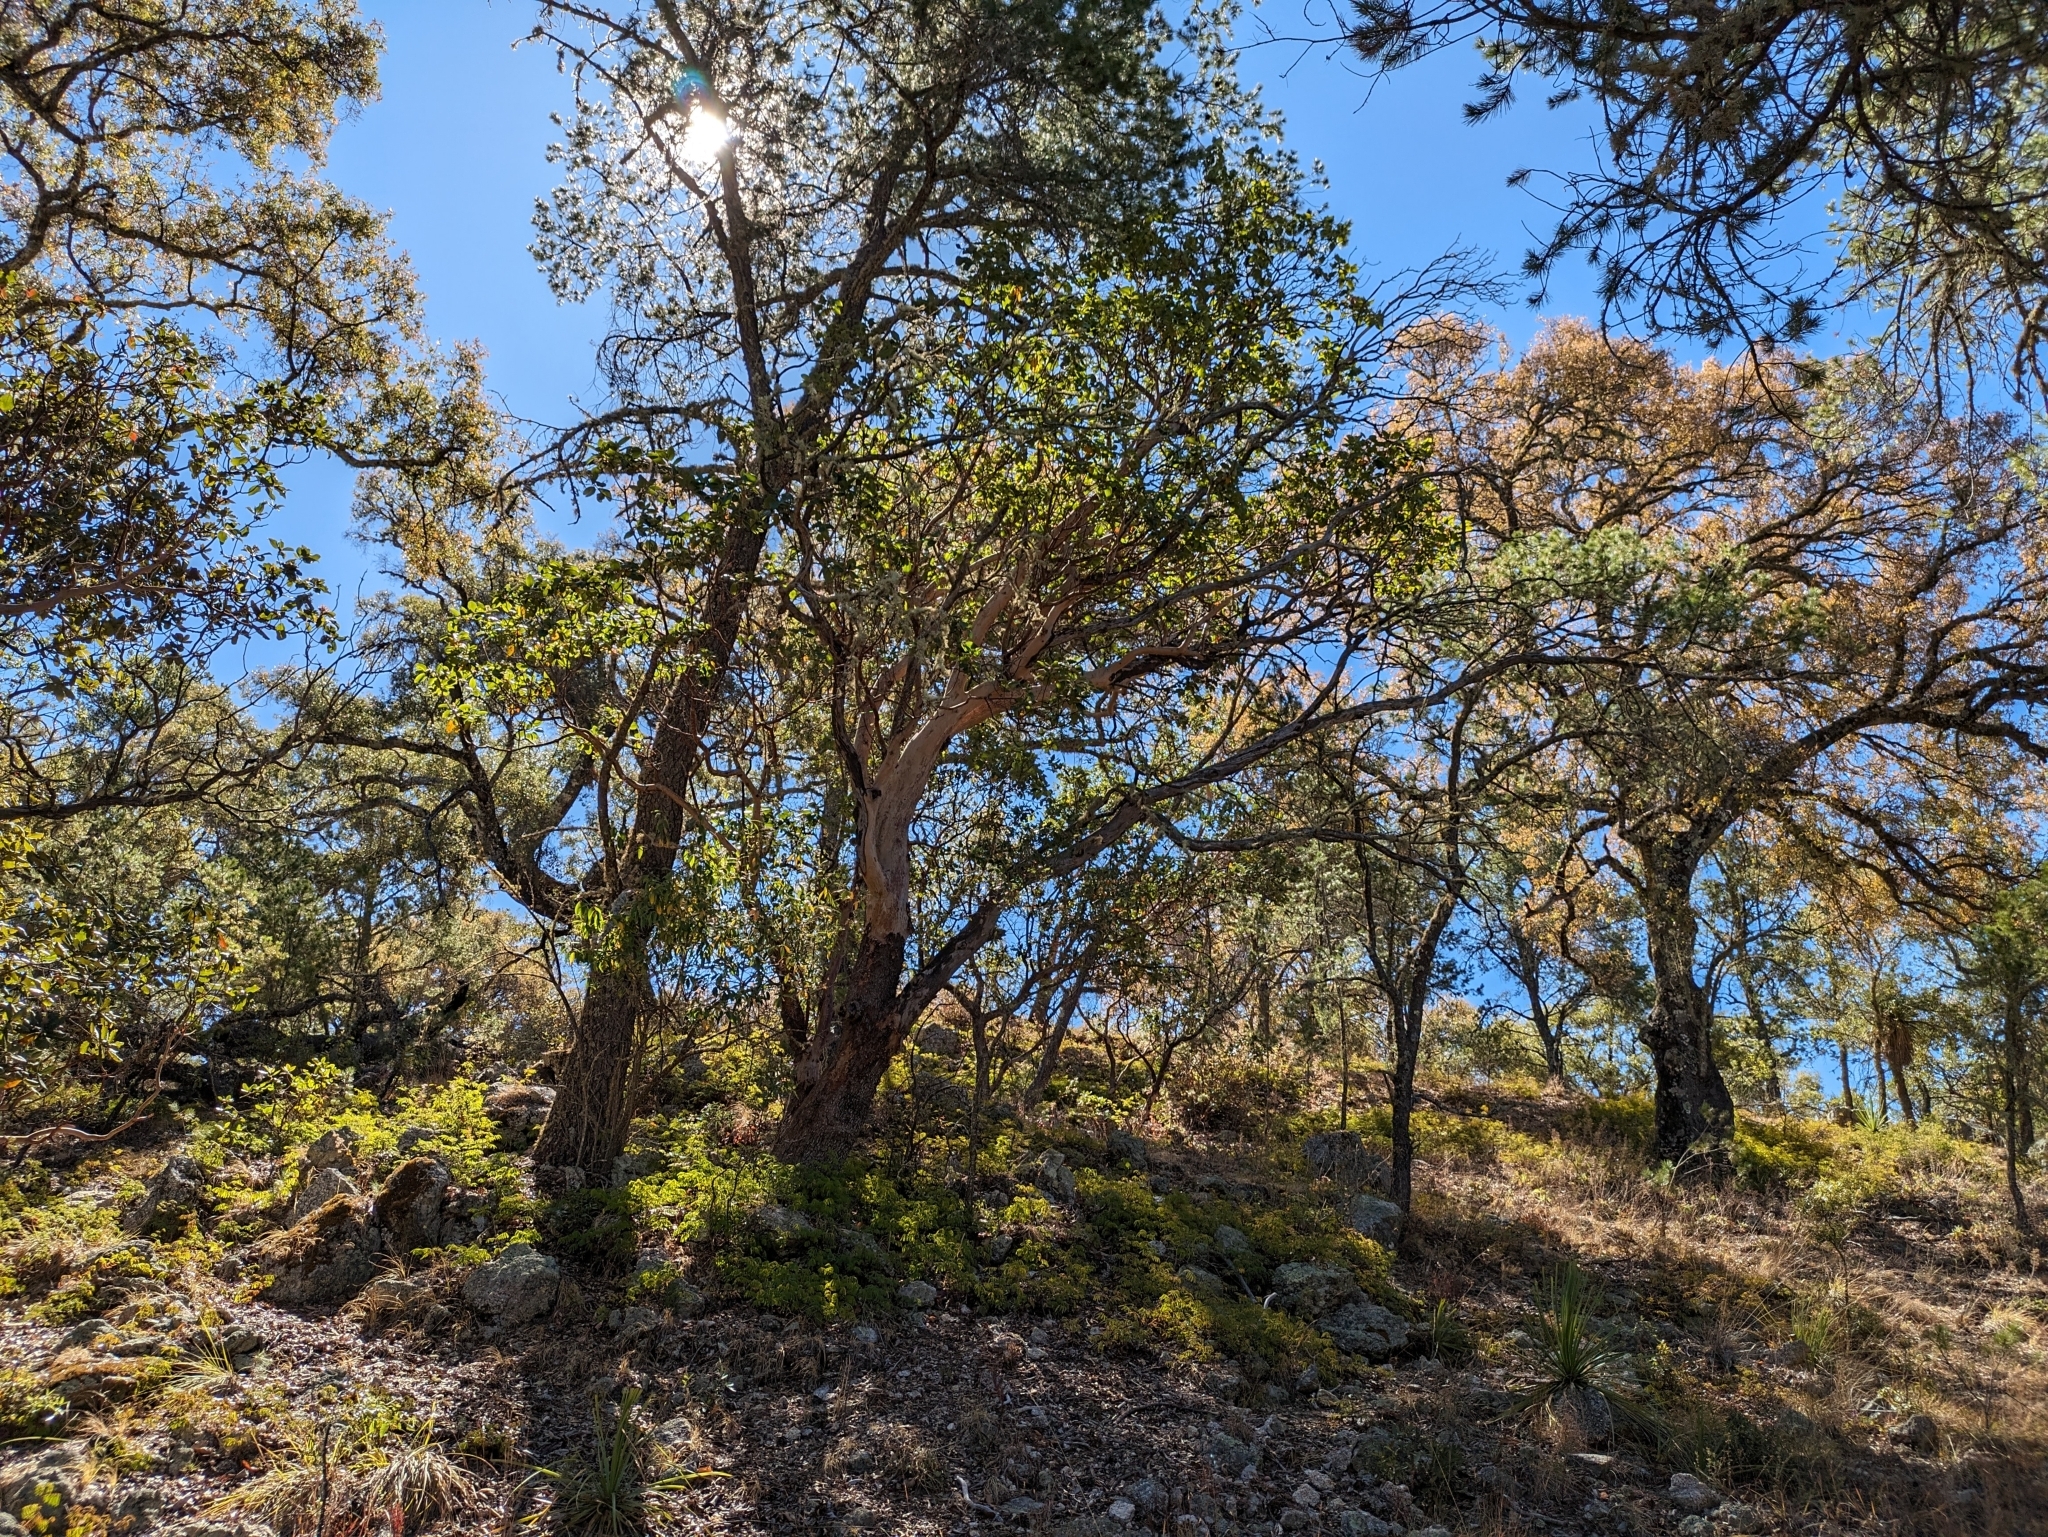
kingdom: Plantae
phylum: Tracheophyta
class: Magnoliopsida
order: Ericales
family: Ericaceae
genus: Arbutus
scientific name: Arbutus xalapensis
